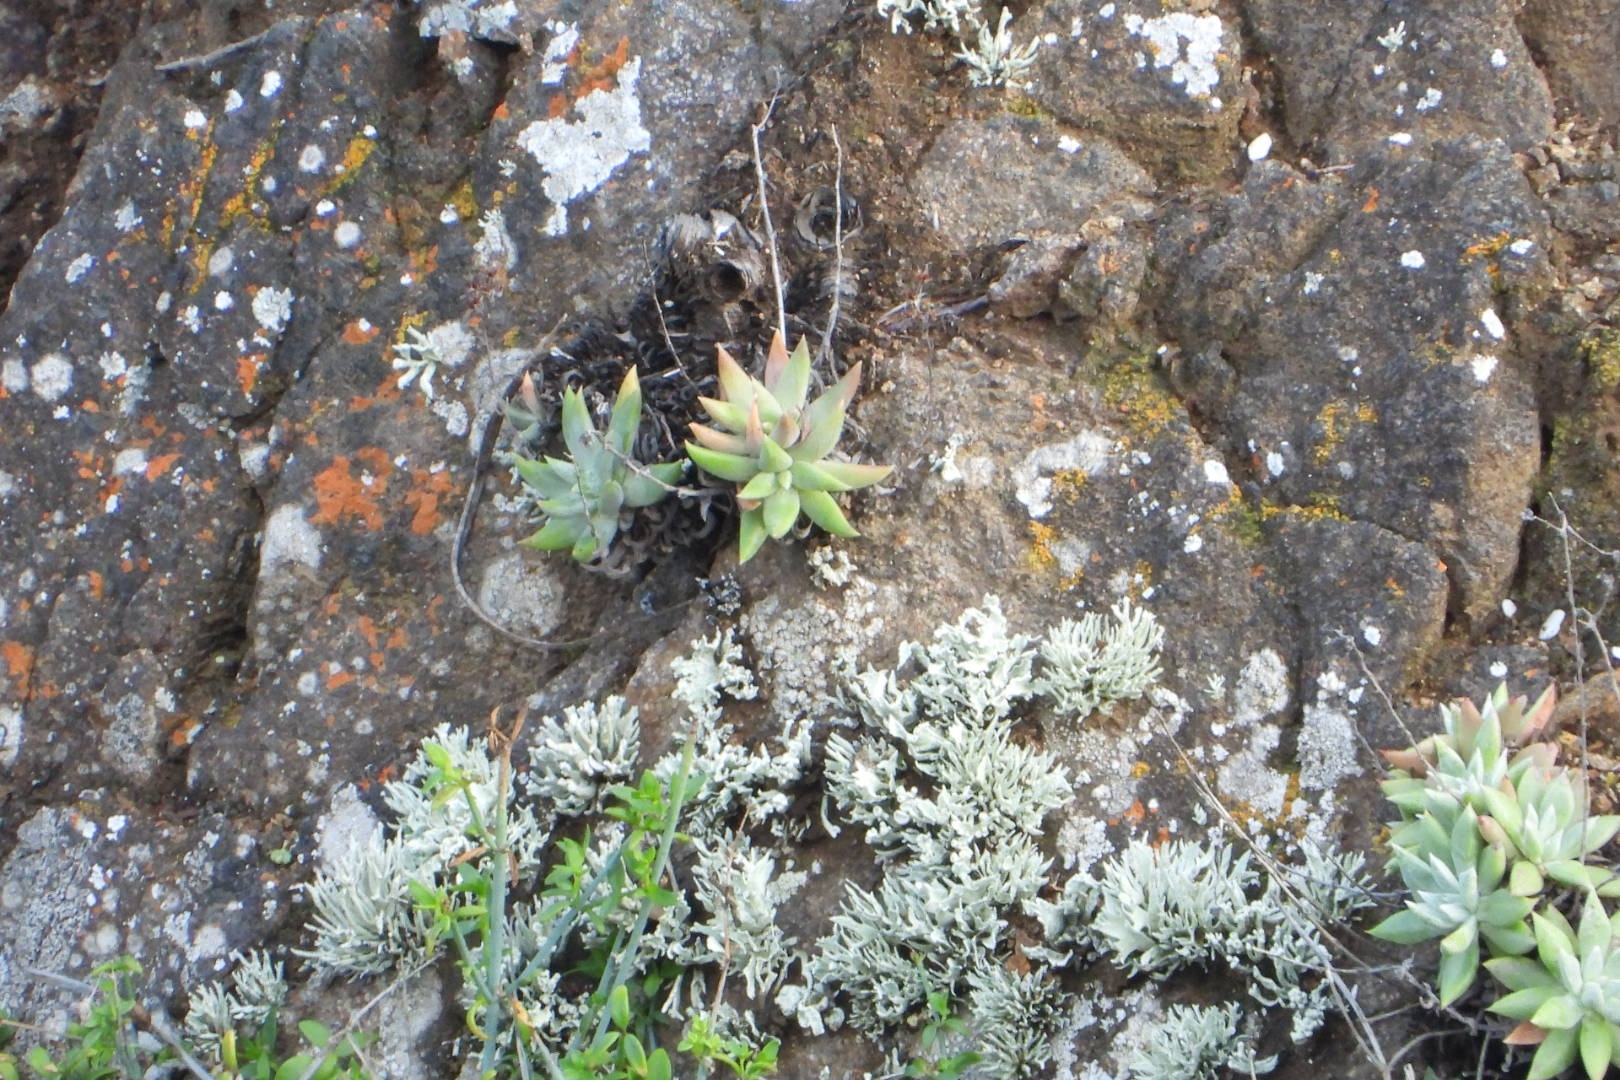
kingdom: Plantae
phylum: Tracheophyta
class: Magnoliopsida
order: Saxifragales
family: Crassulaceae
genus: Dudleya
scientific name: Dudleya campanulata
